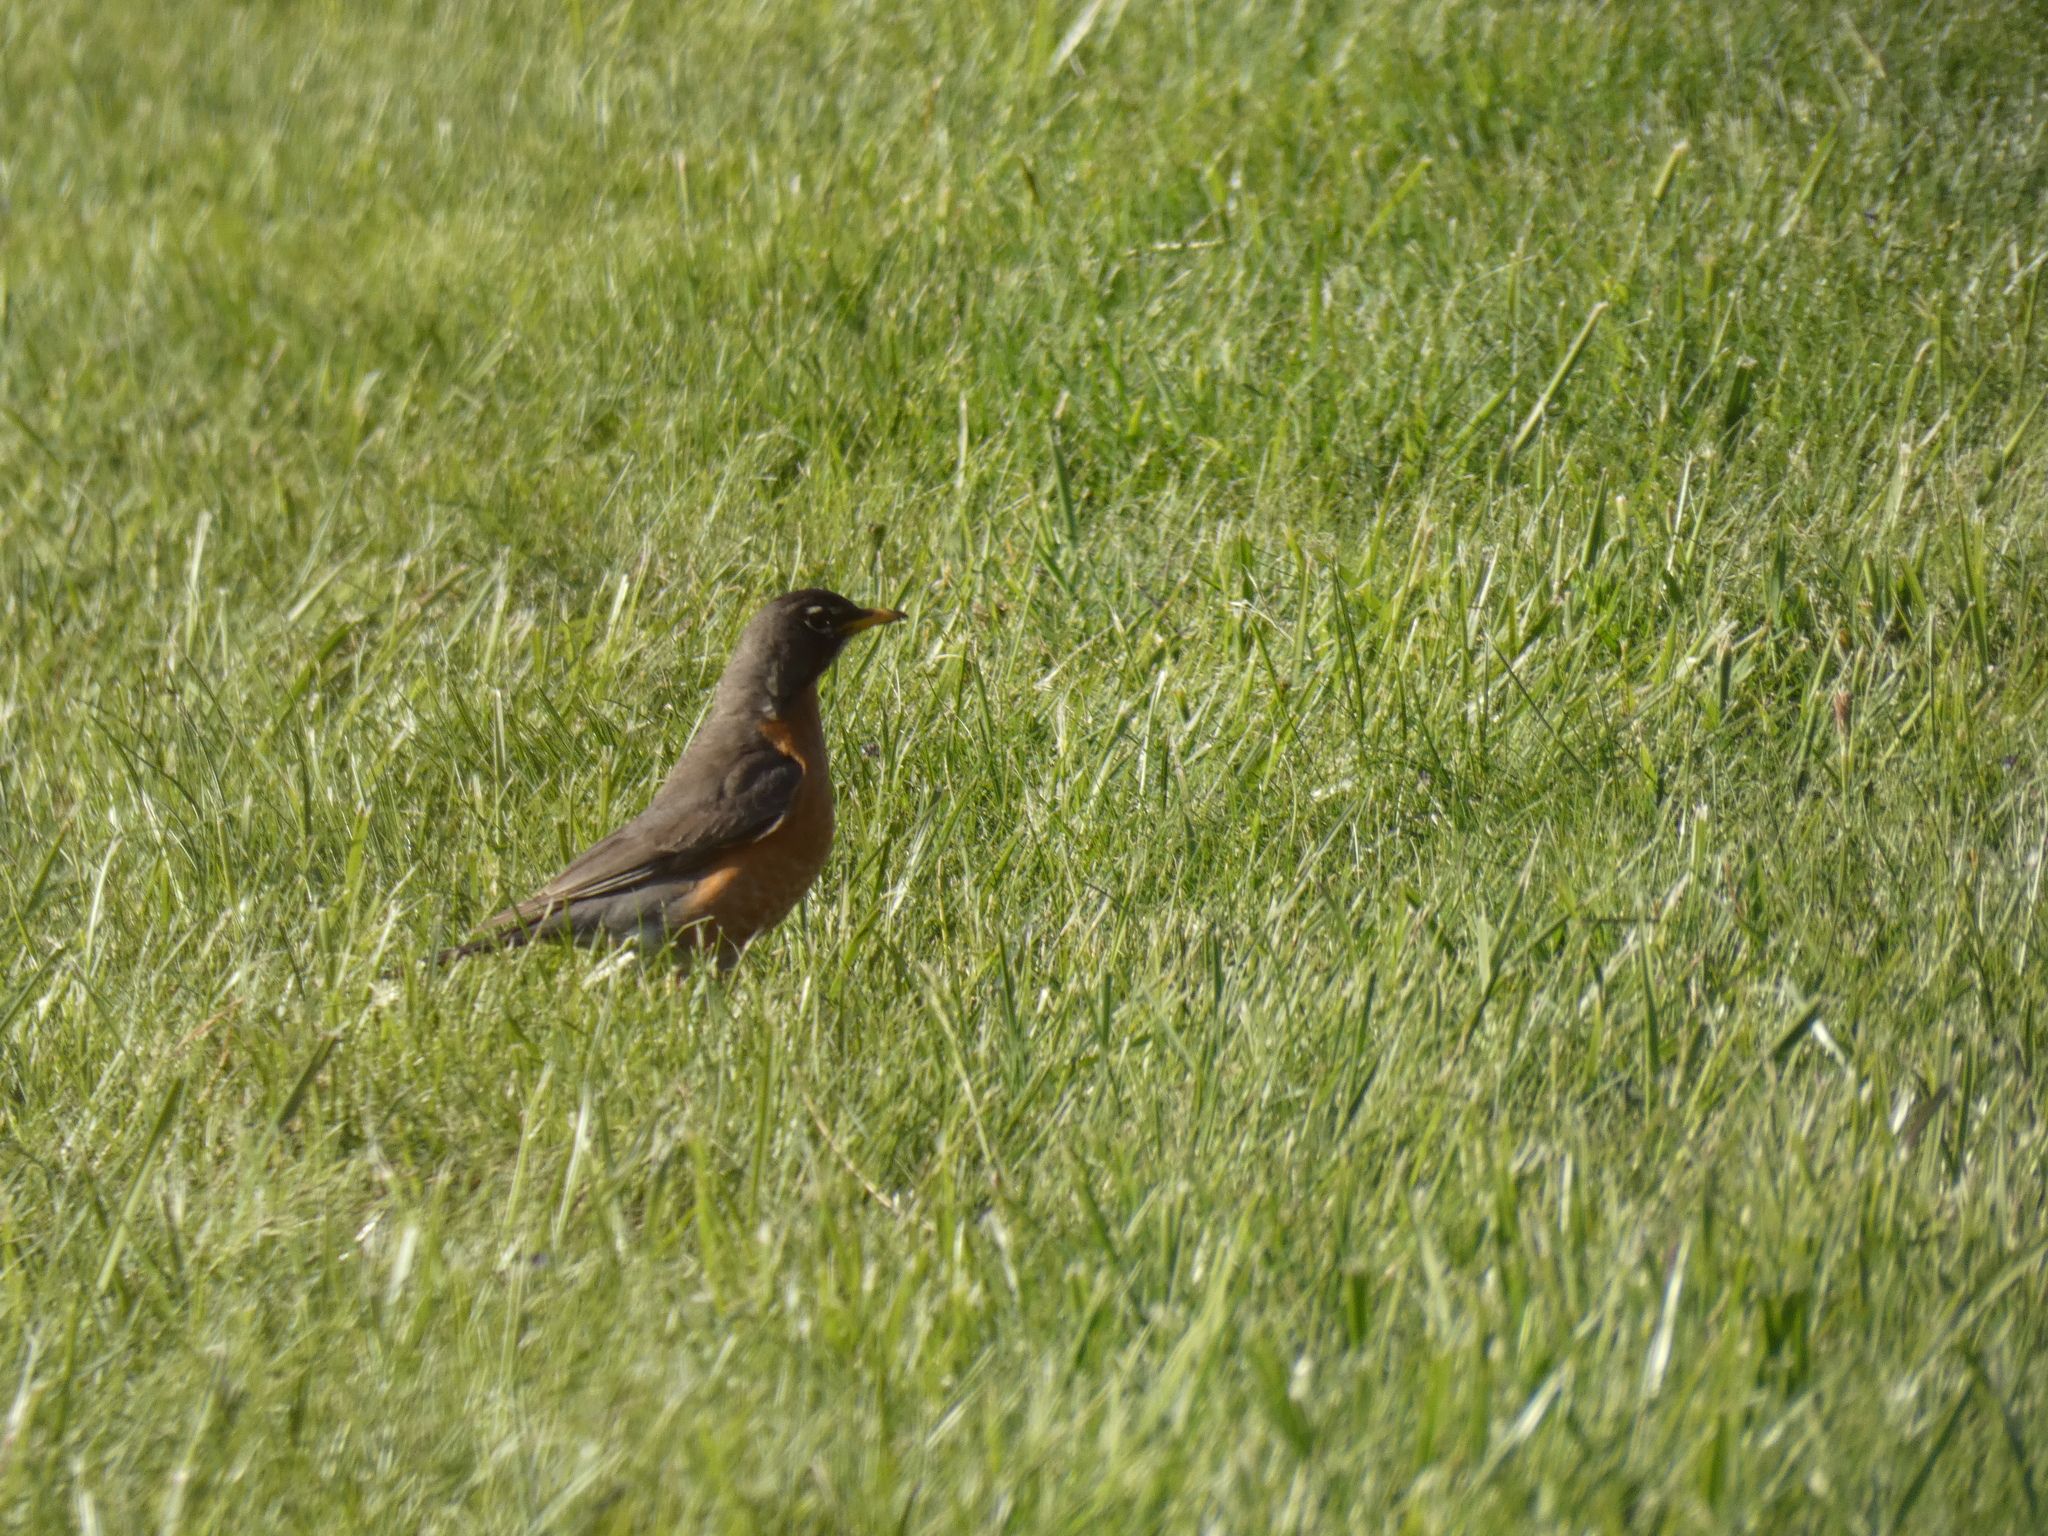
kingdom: Animalia
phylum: Chordata
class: Aves
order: Passeriformes
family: Turdidae
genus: Turdus
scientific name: Turdus migratorius
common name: American robin
